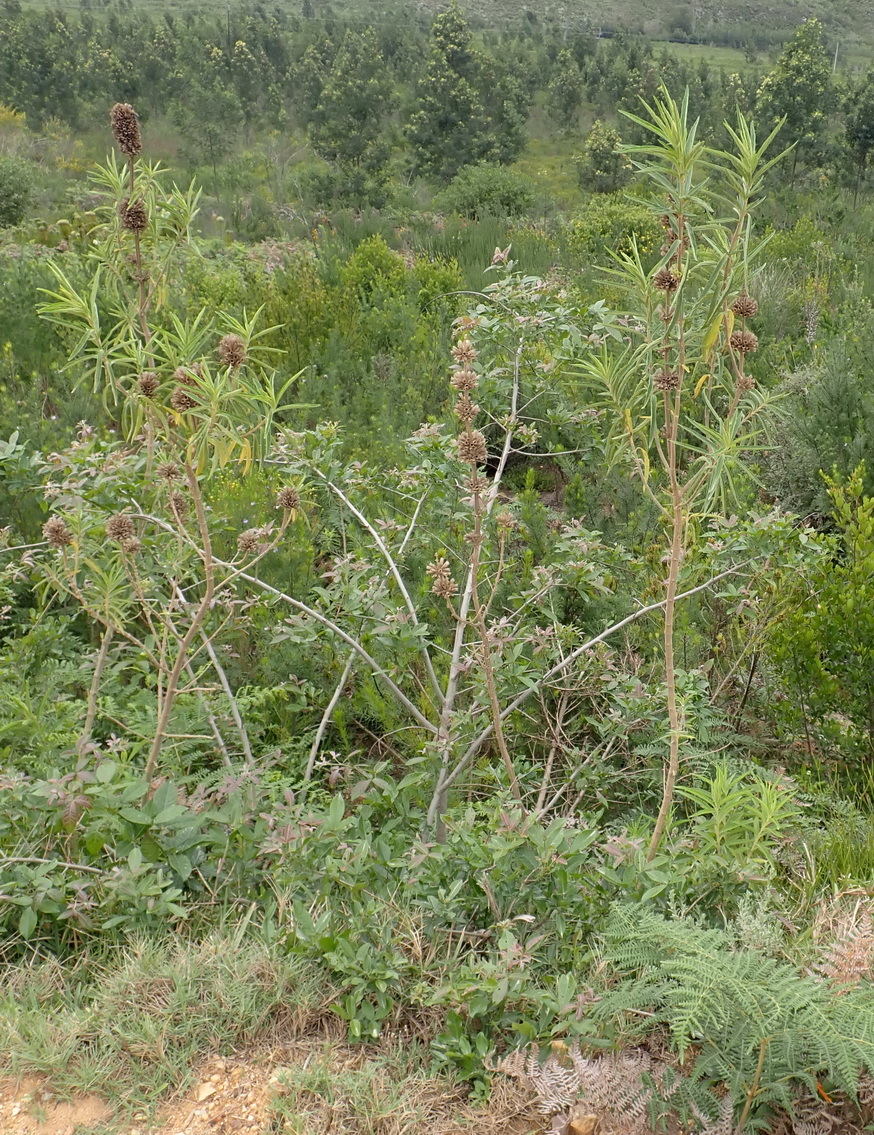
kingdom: Plantae
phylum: Tracheophyta
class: Magnoliopsida
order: Lamiales
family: Lamiaceae
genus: Leonotis
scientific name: Leonotis leonurus
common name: Lion's ear
